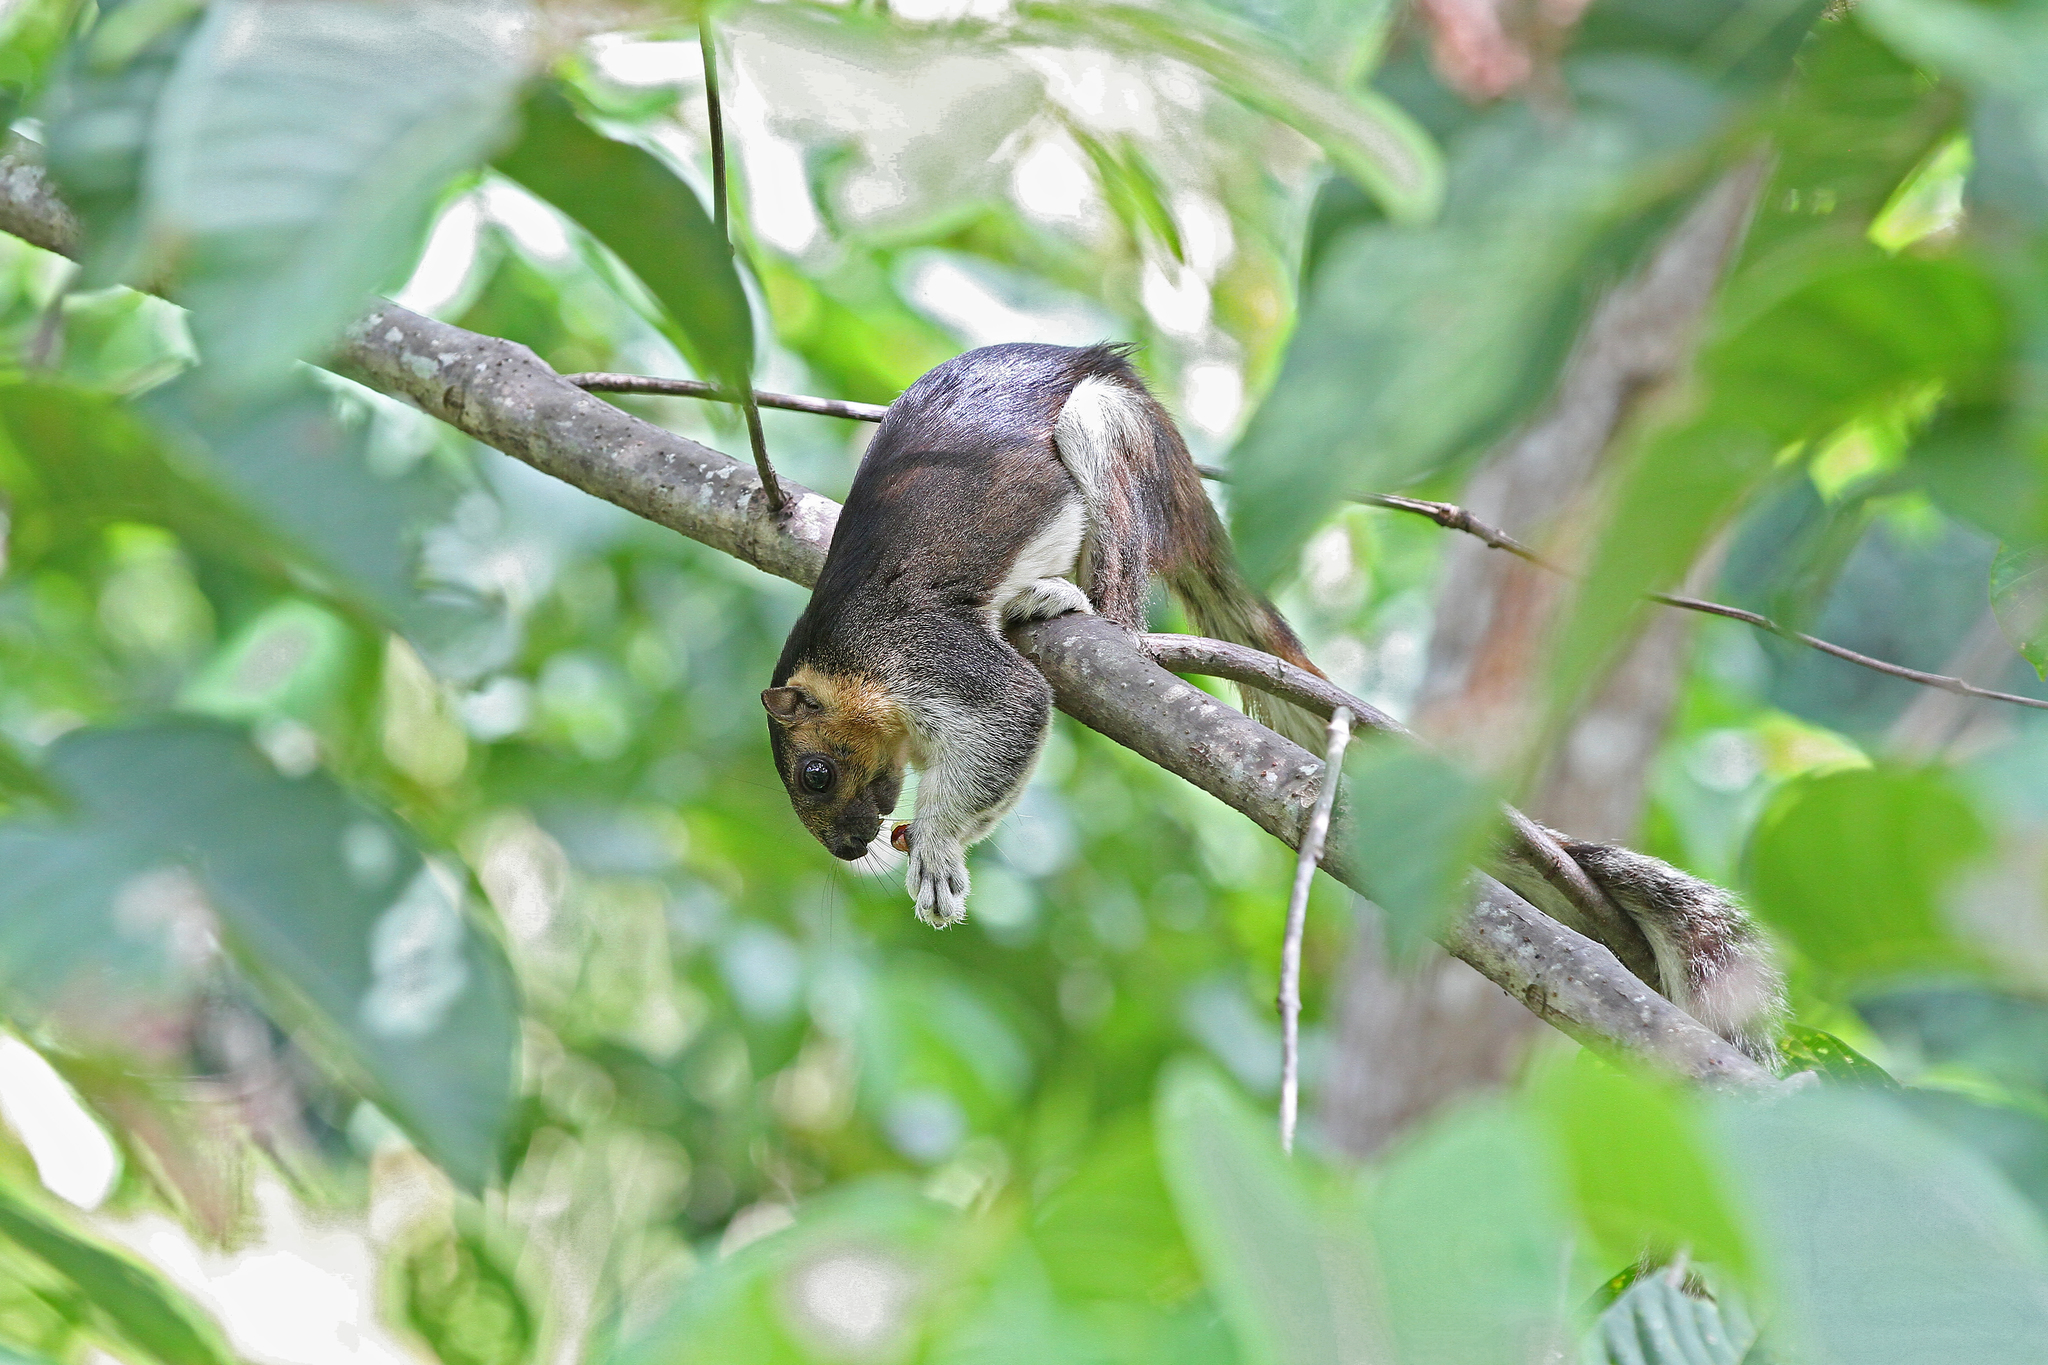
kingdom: Animalia
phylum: Chordata
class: Mammalia
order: Rodentia
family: Sciuridae
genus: Ratufa
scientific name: Ratufa affinis
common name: Pale giant squirrel
